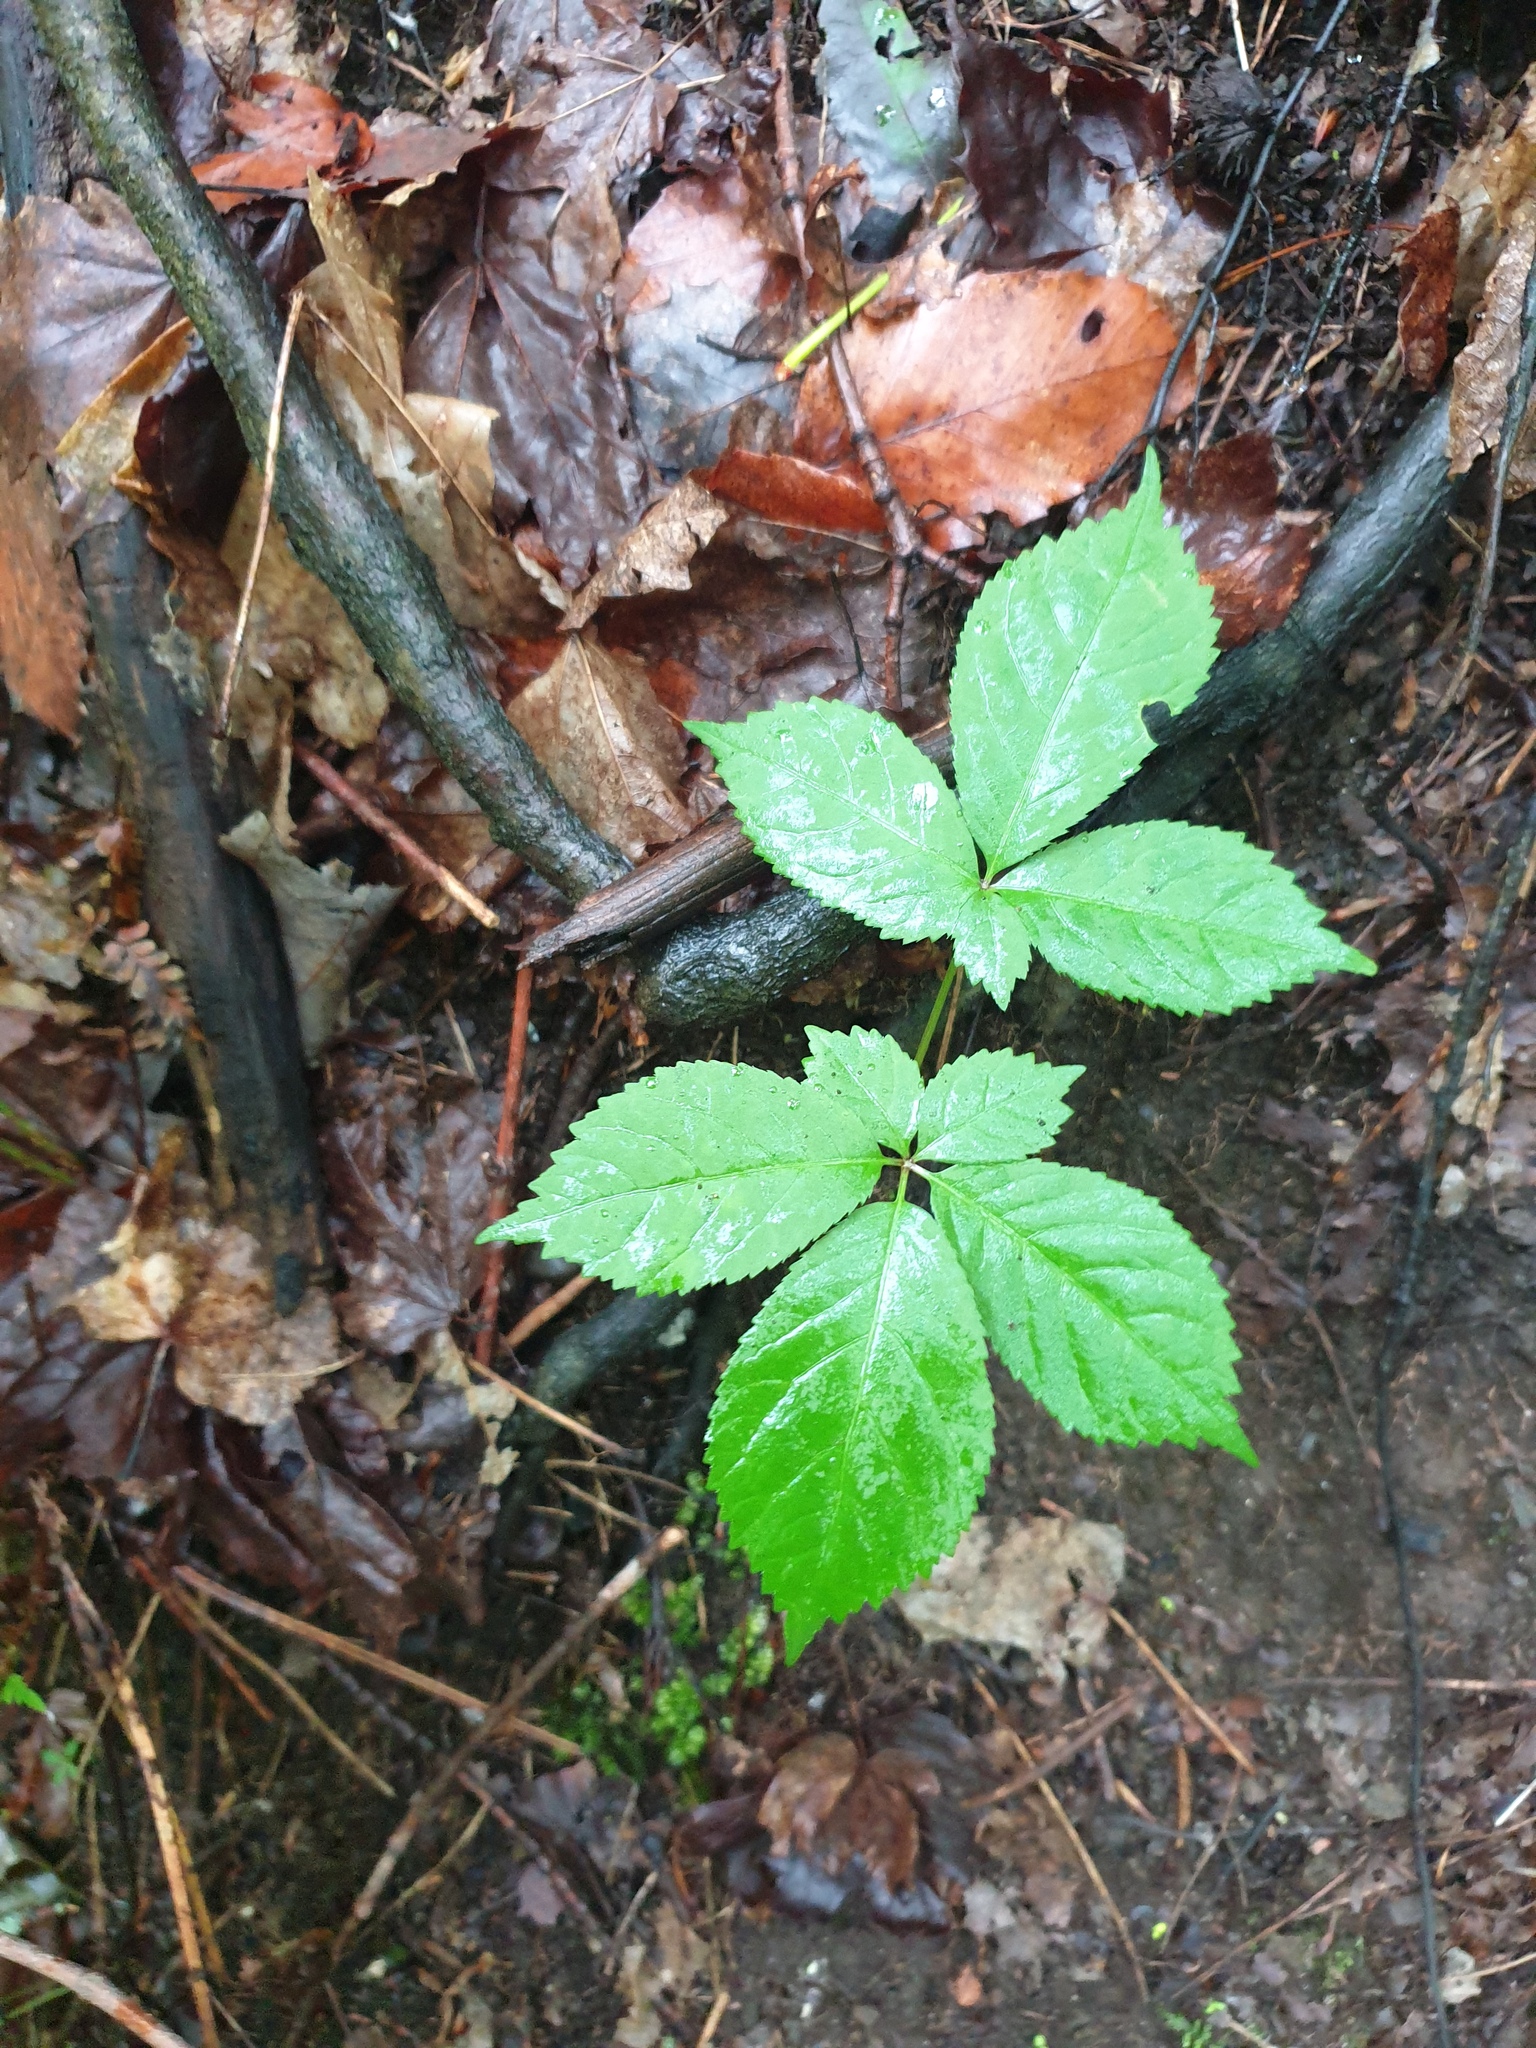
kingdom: Plantae
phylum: Tracheophyta
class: Magnoliopsida
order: Apiales
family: Araliaceae
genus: Panax
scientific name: Panax quinquefolius
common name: American ginseng
